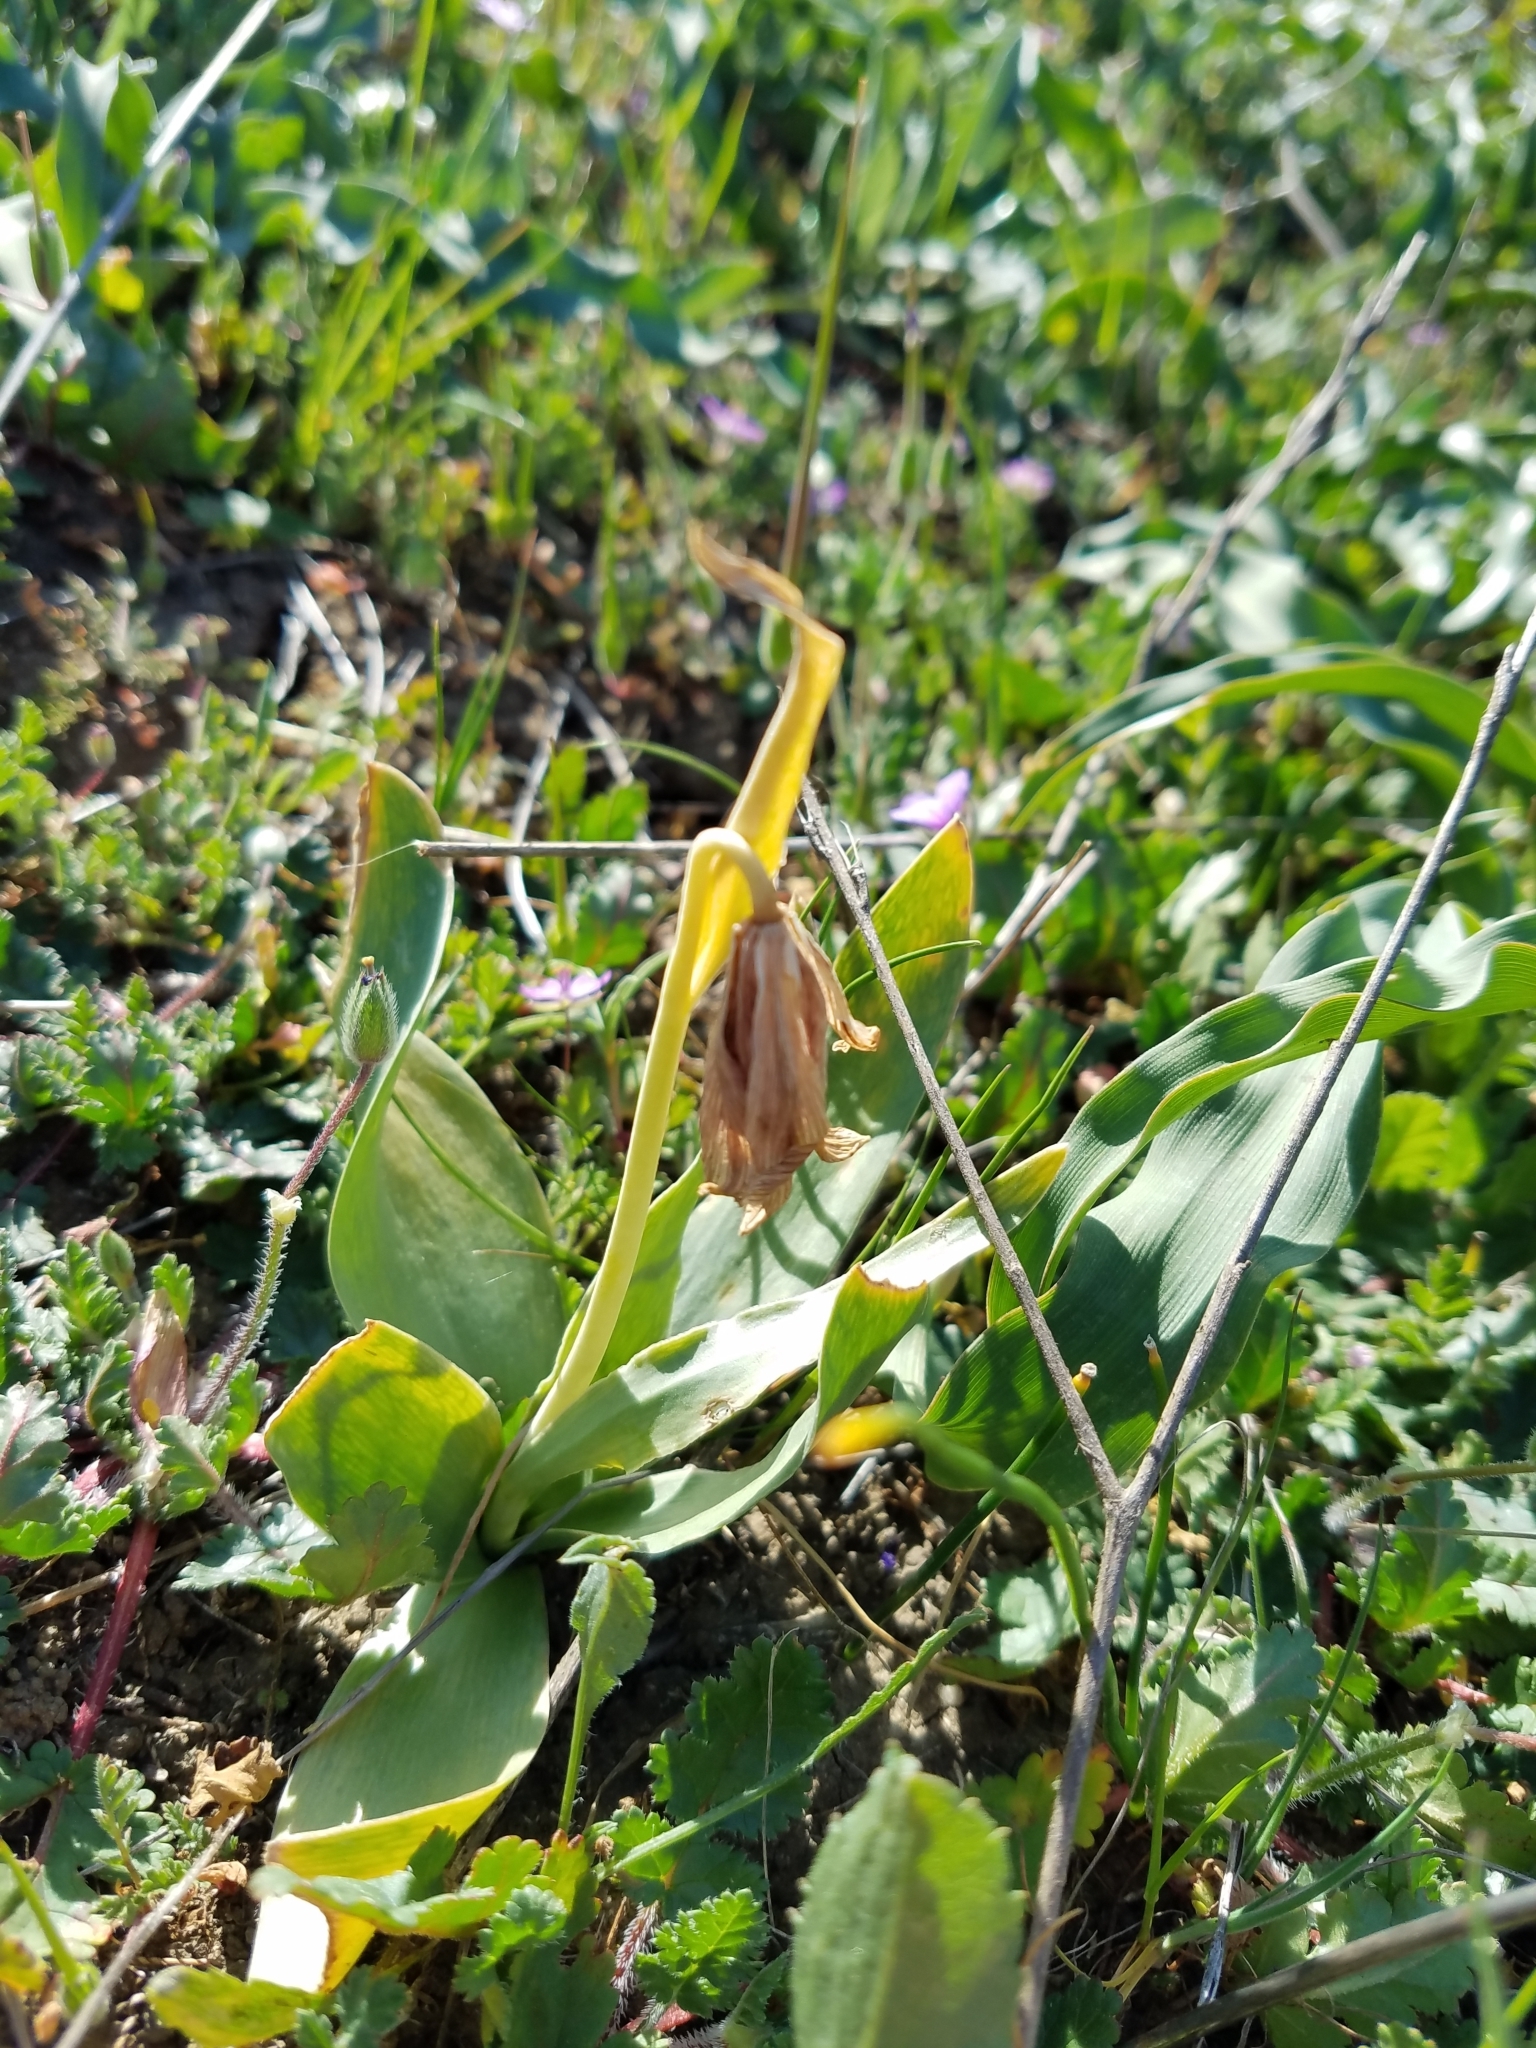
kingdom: Plantae
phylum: Tracheophyta
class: Liliopsida
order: Liliales
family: Liliaceae
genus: Fritillaria
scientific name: Fritillaria agrestis
